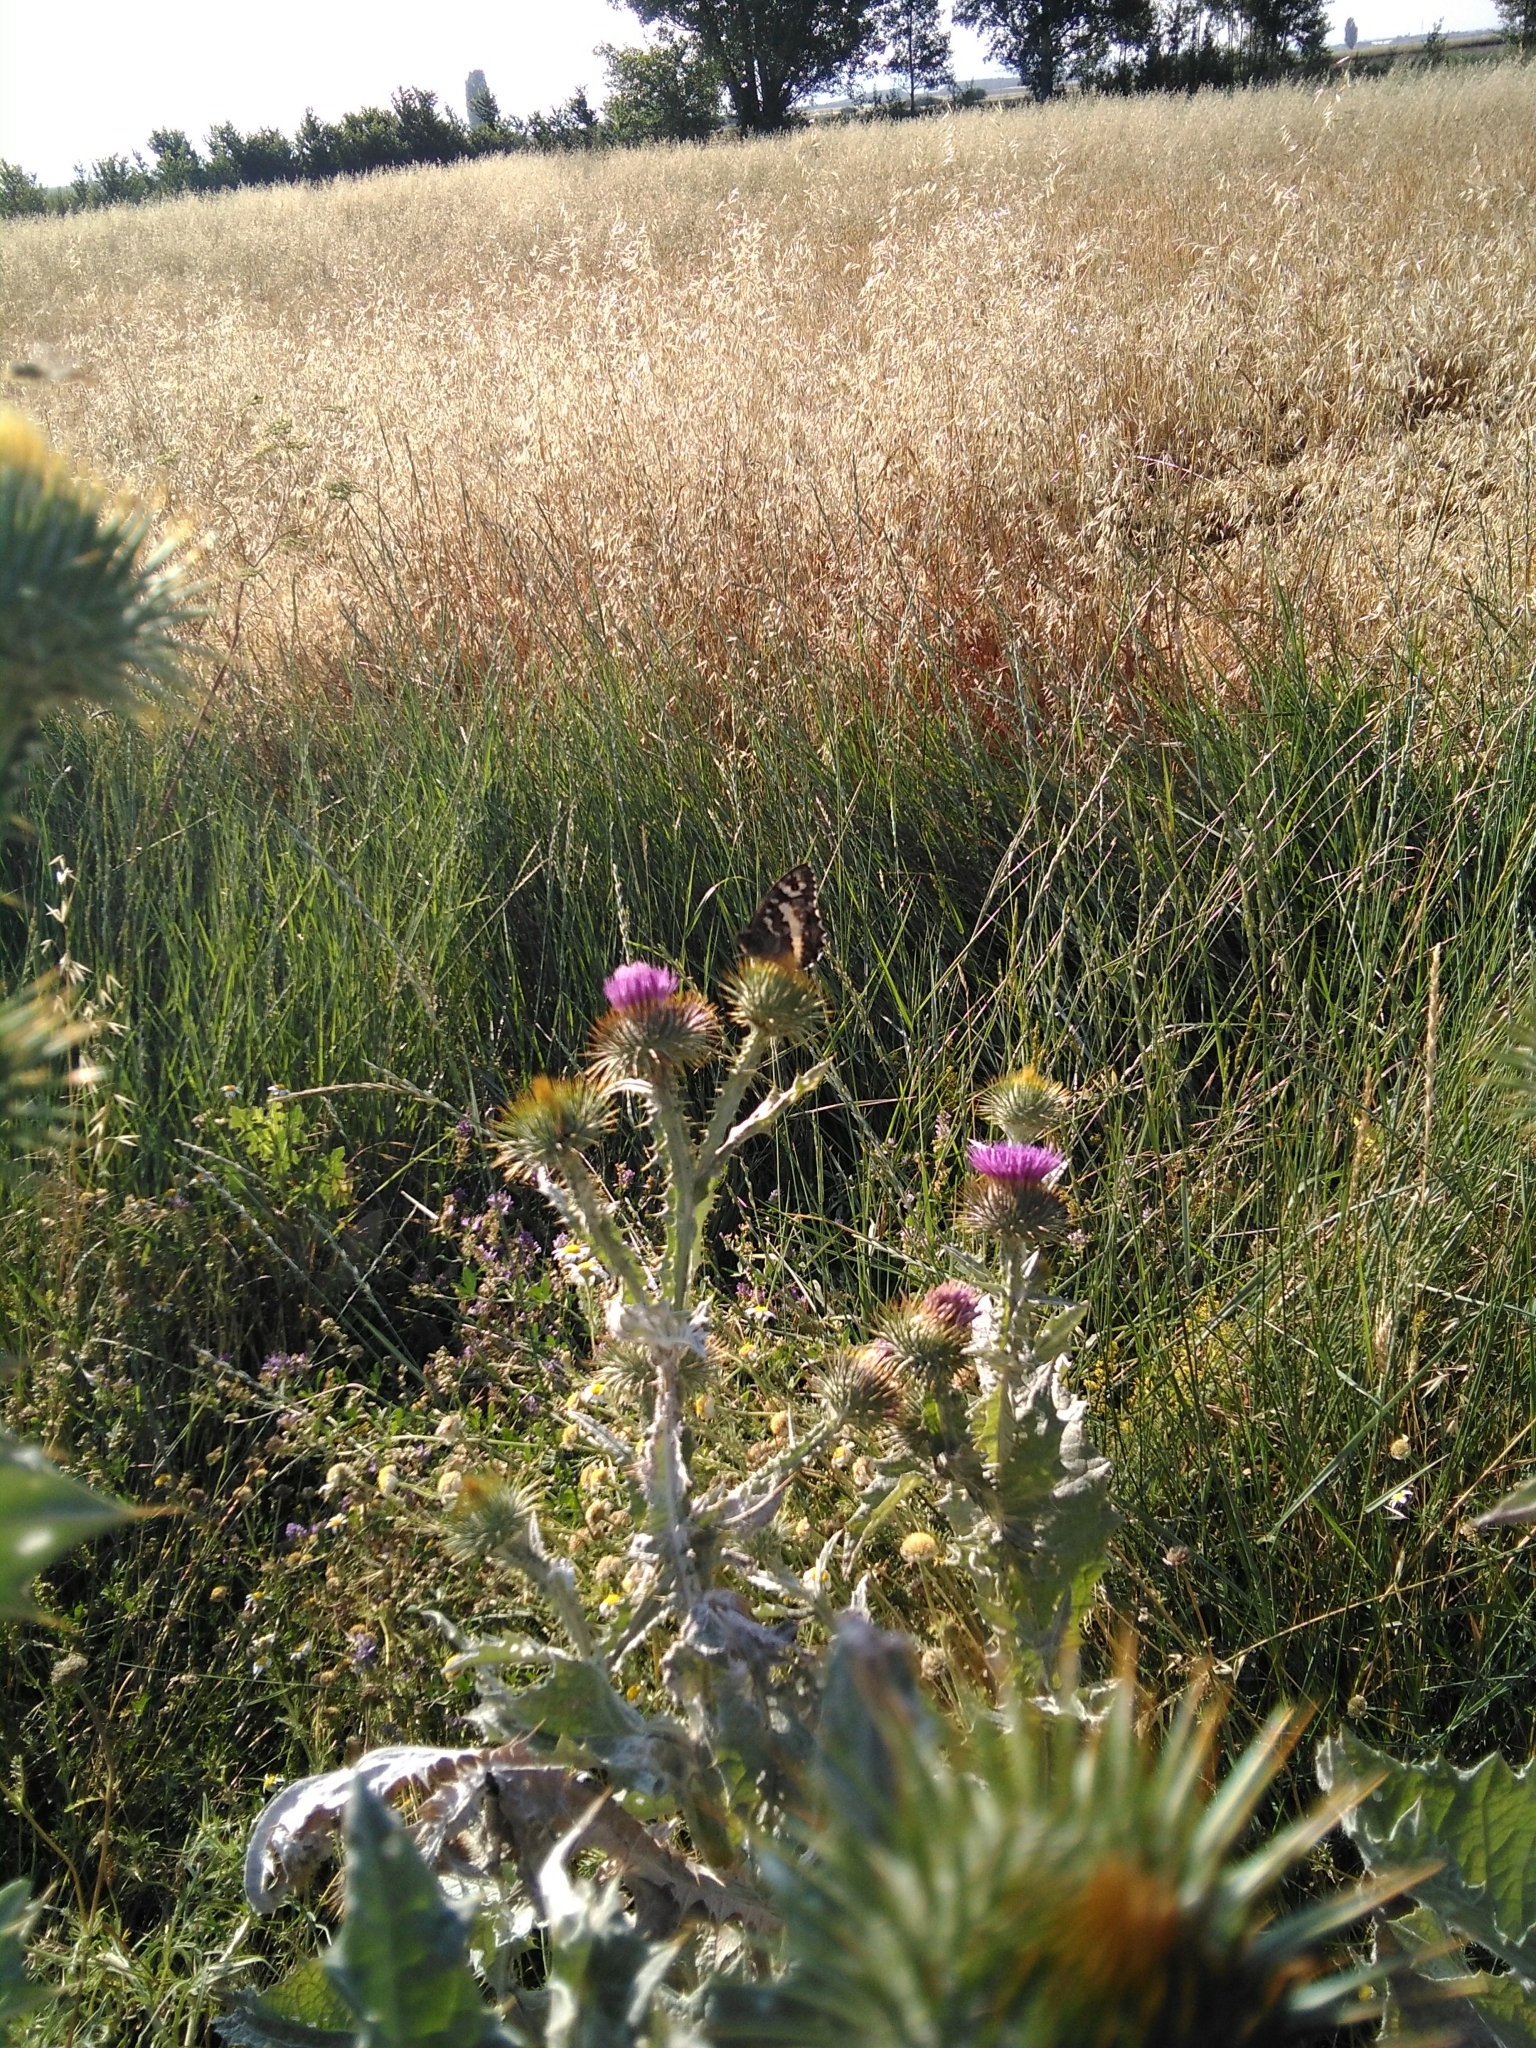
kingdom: Animalia
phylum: Arthropoda
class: Insecta
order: Lepidoptera
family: Lycaenidae
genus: Loweia
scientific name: Loweia tityrus
